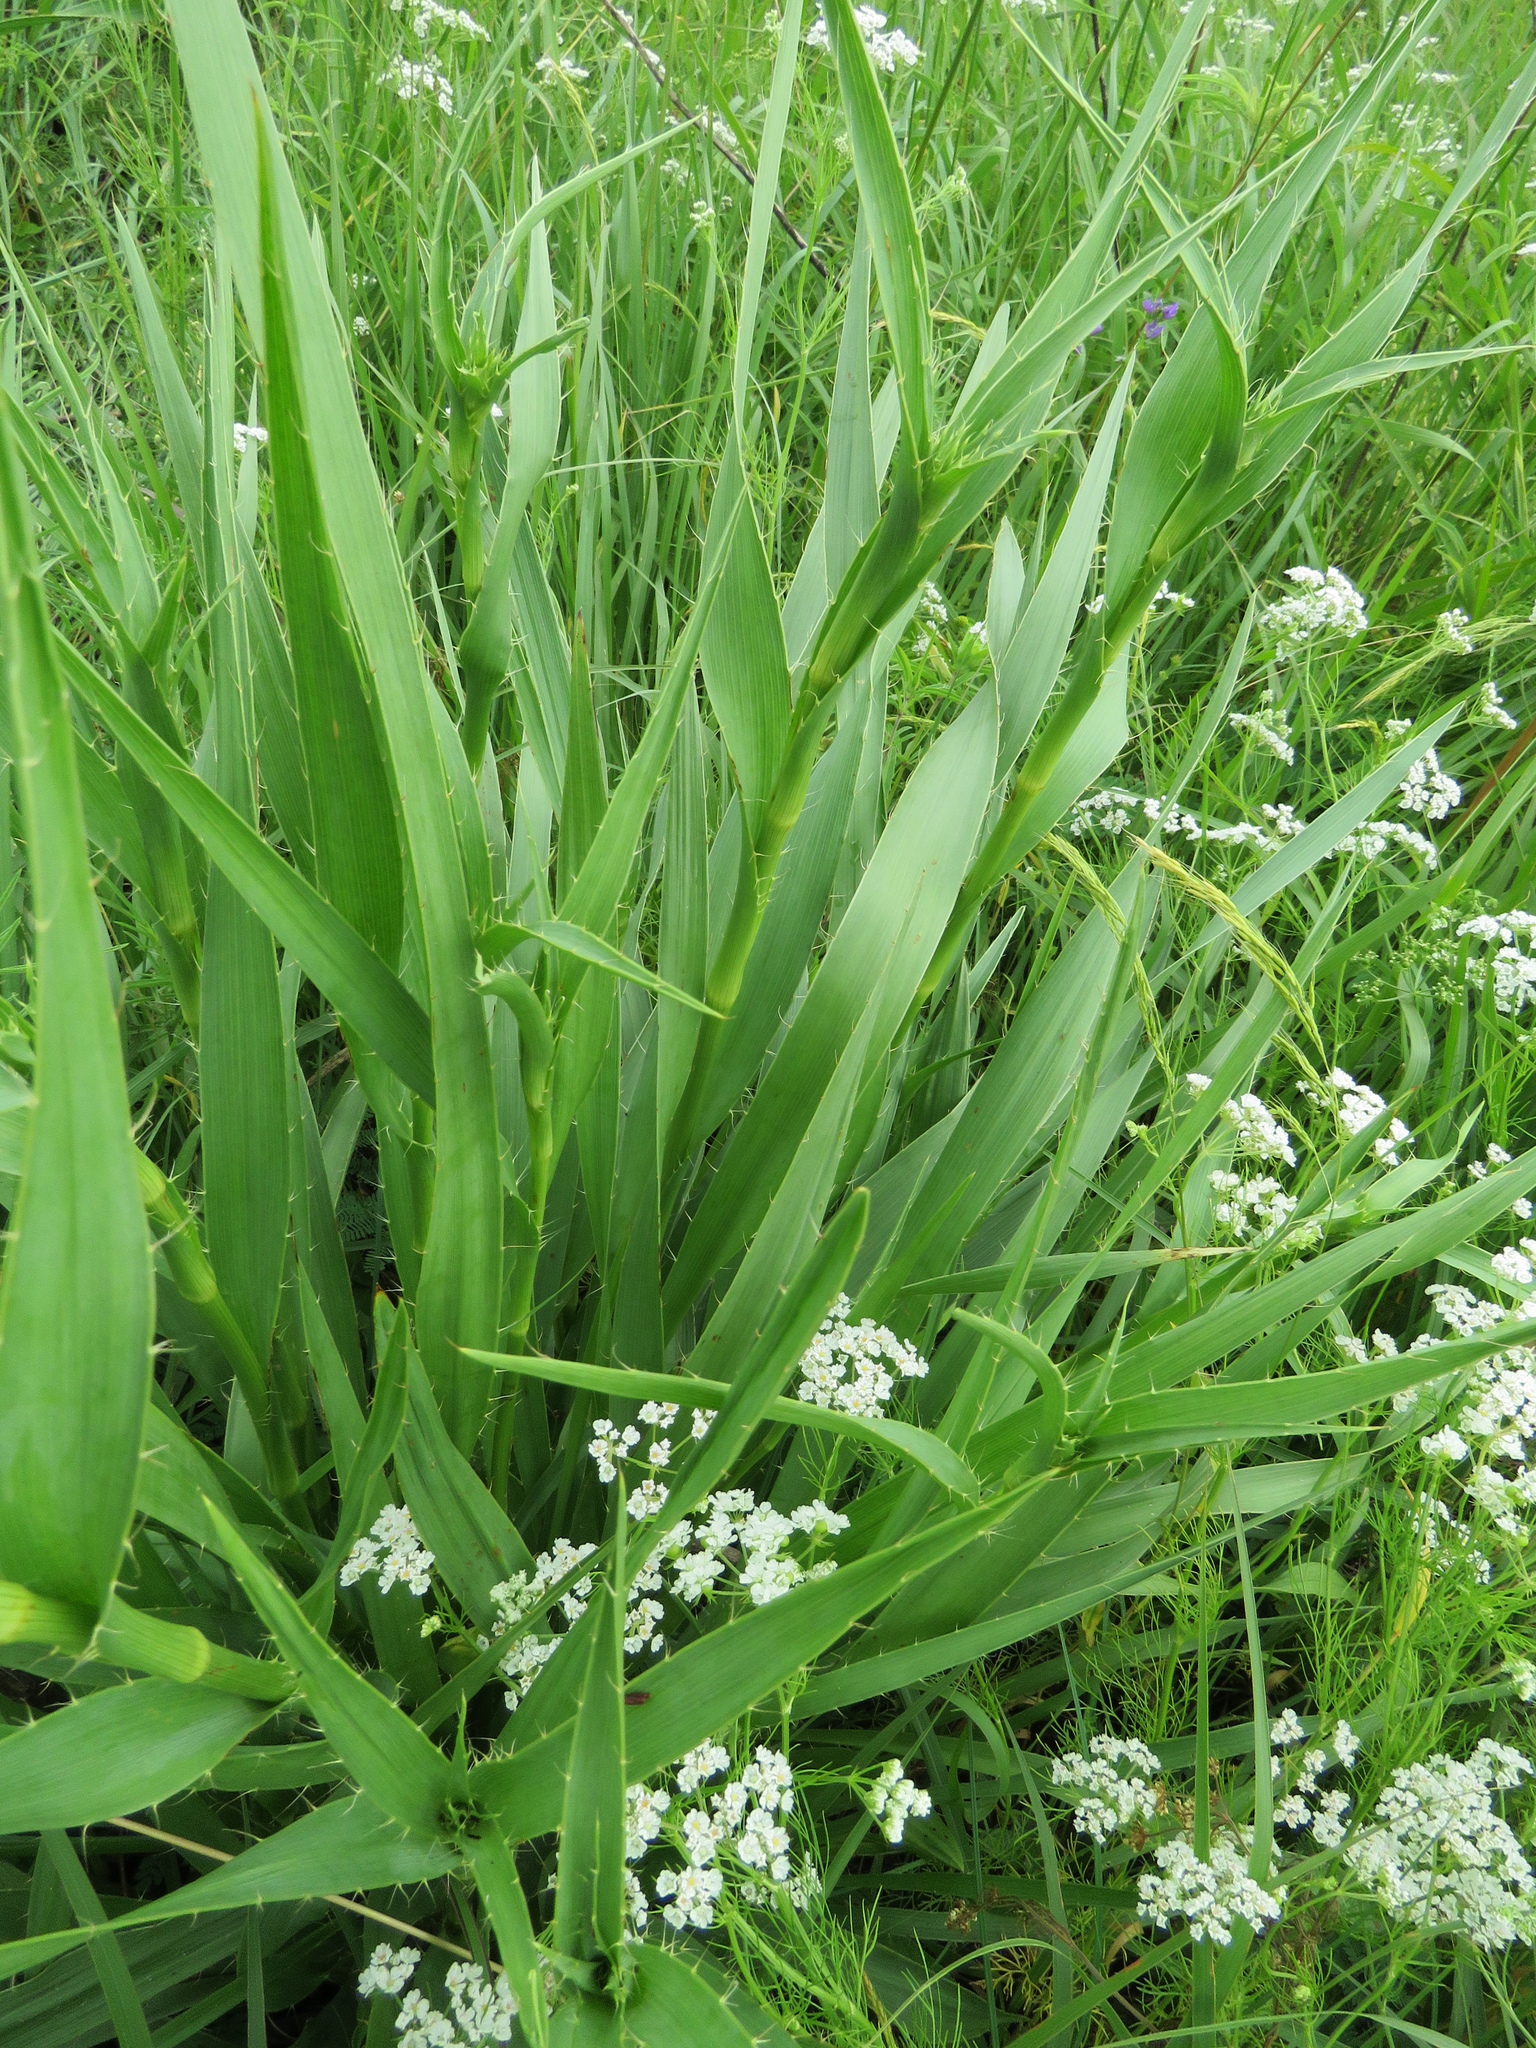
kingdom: Plantae
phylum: Tracheophyta
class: Magnoliopsida
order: Apiales
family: Apiaceae
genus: Eryngium
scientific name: Eryngium yuccifolium
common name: Button eryngo
